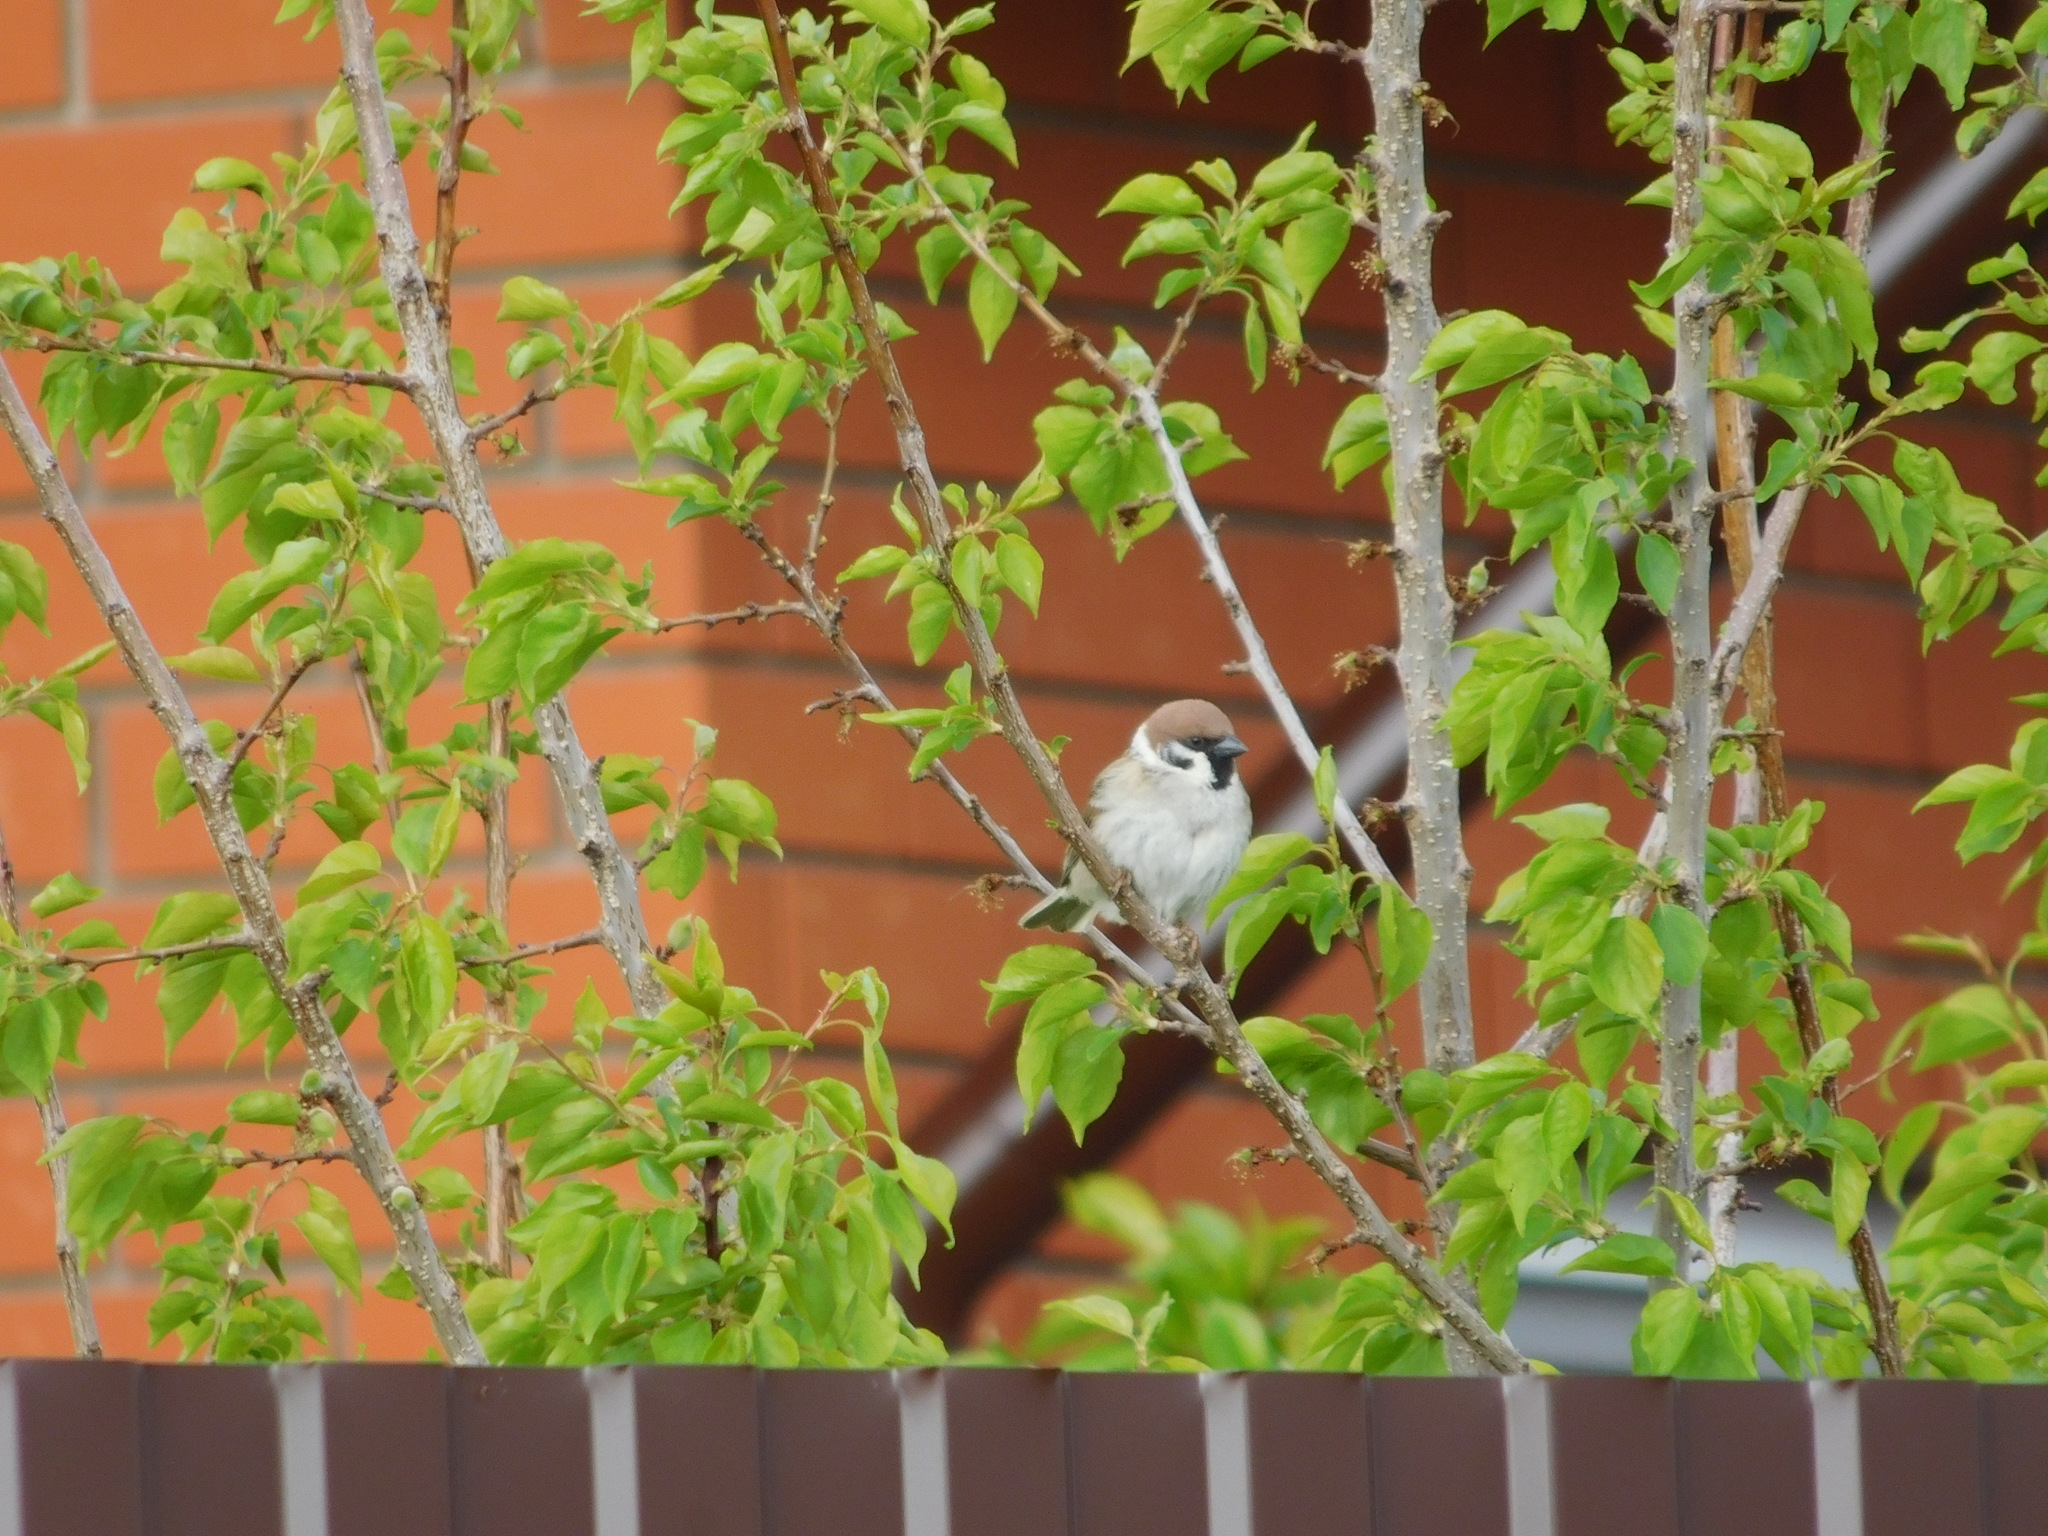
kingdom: Animalia
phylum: Chordata
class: Aves
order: Passeriformes
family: Passeridae
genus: Passer
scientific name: Passer montanus
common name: Eurasian tree sparrow
